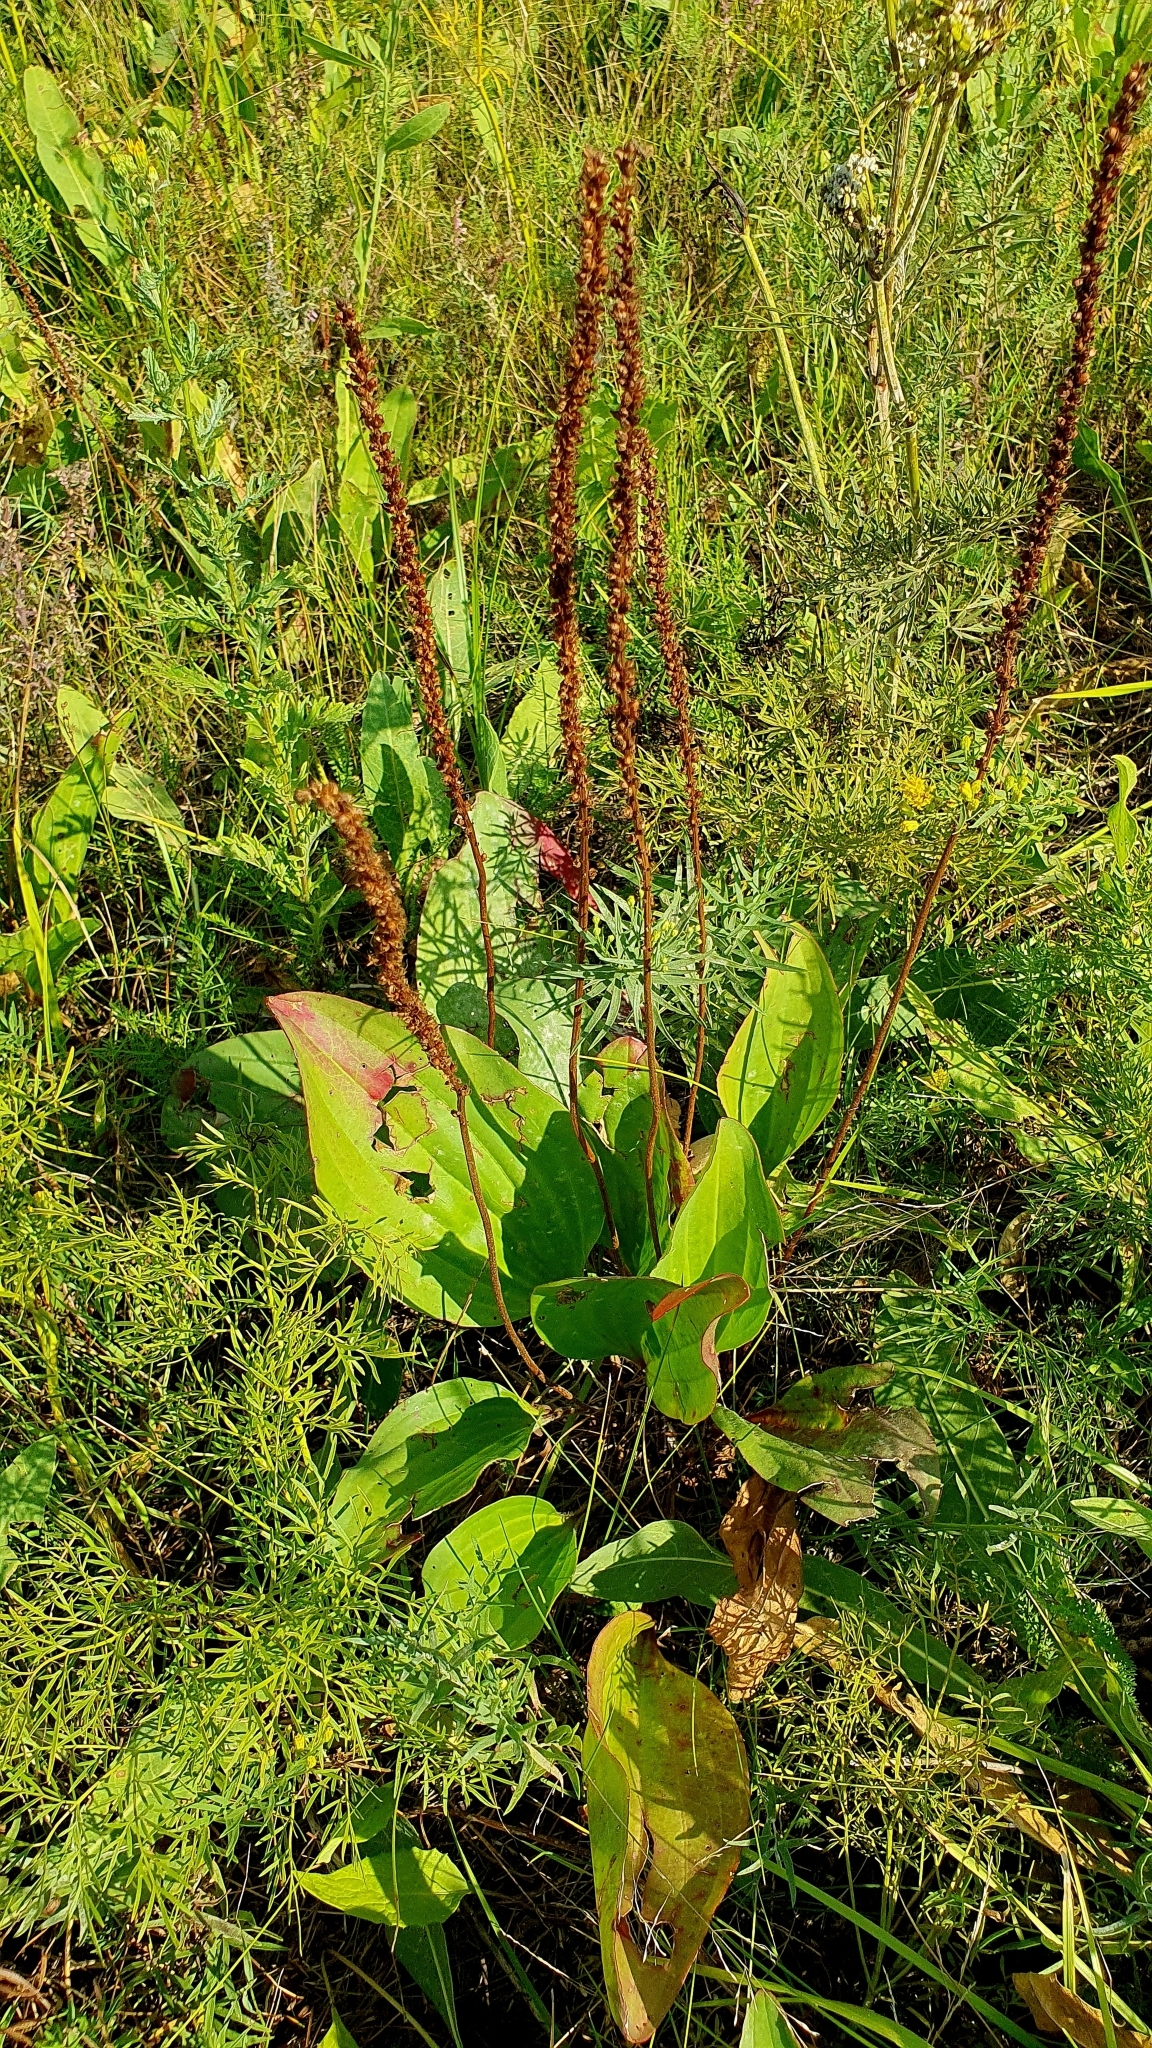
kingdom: Plantae
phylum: Tracheophyta
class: Magnoliopsida
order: Lamiales
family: Plantaginaceae
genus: Plantago
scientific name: Plantago cornuti
